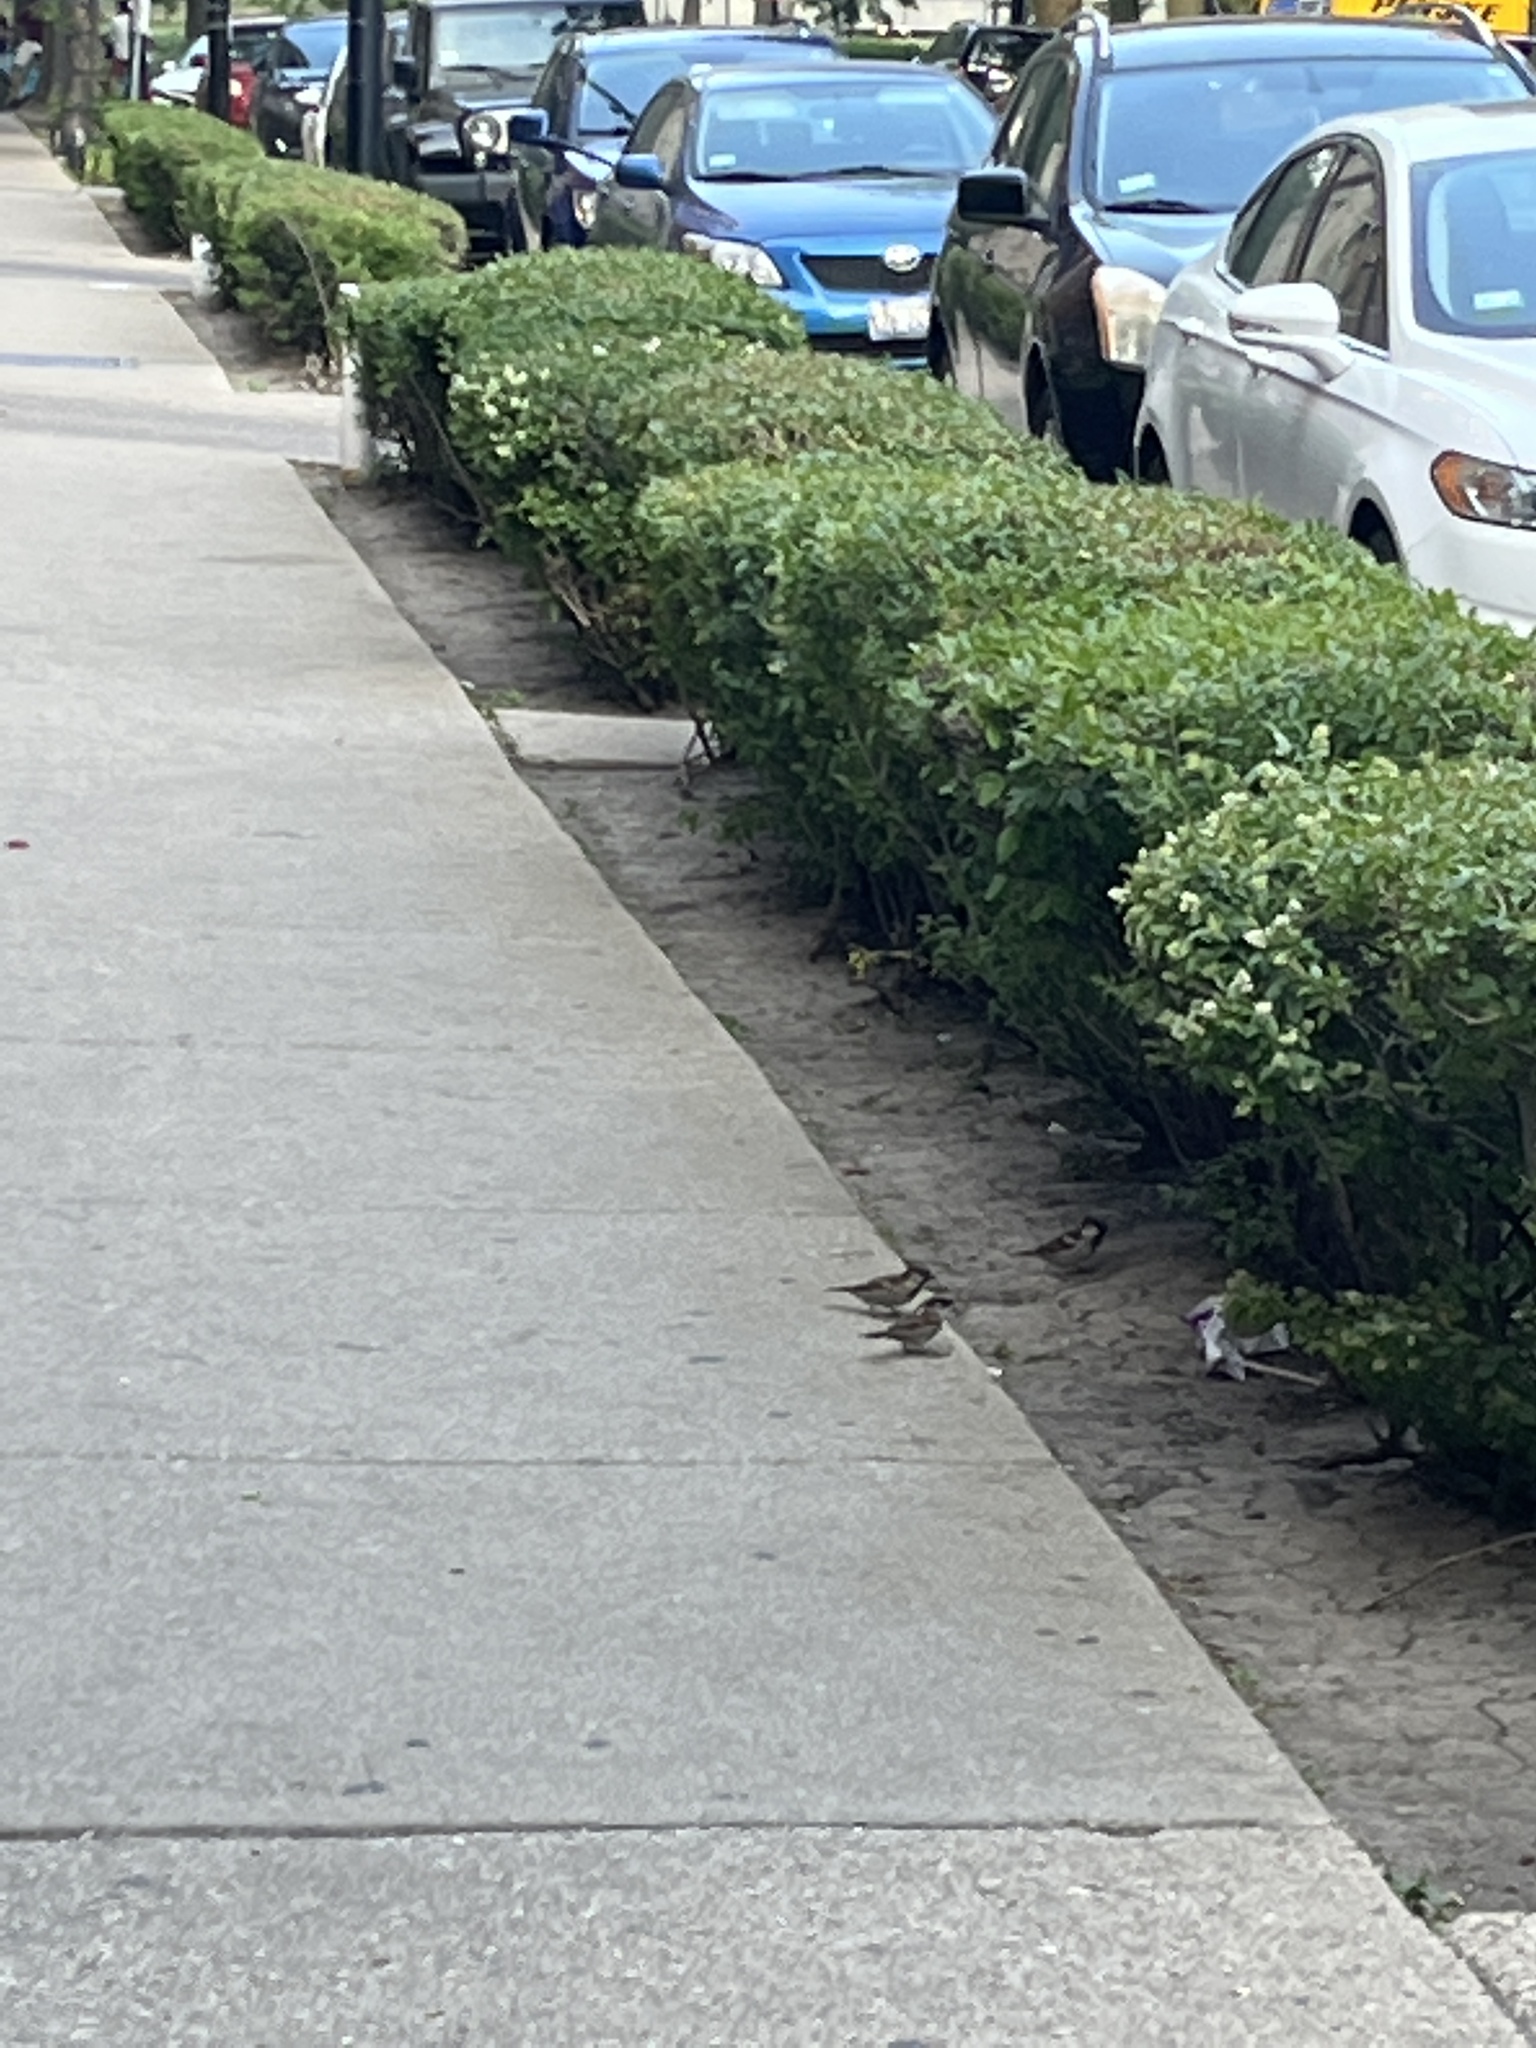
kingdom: Animalia
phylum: Chordata
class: Aves
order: Passeriformes
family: Passeridae
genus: Passer
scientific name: Passer domesticus
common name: House sparrow
